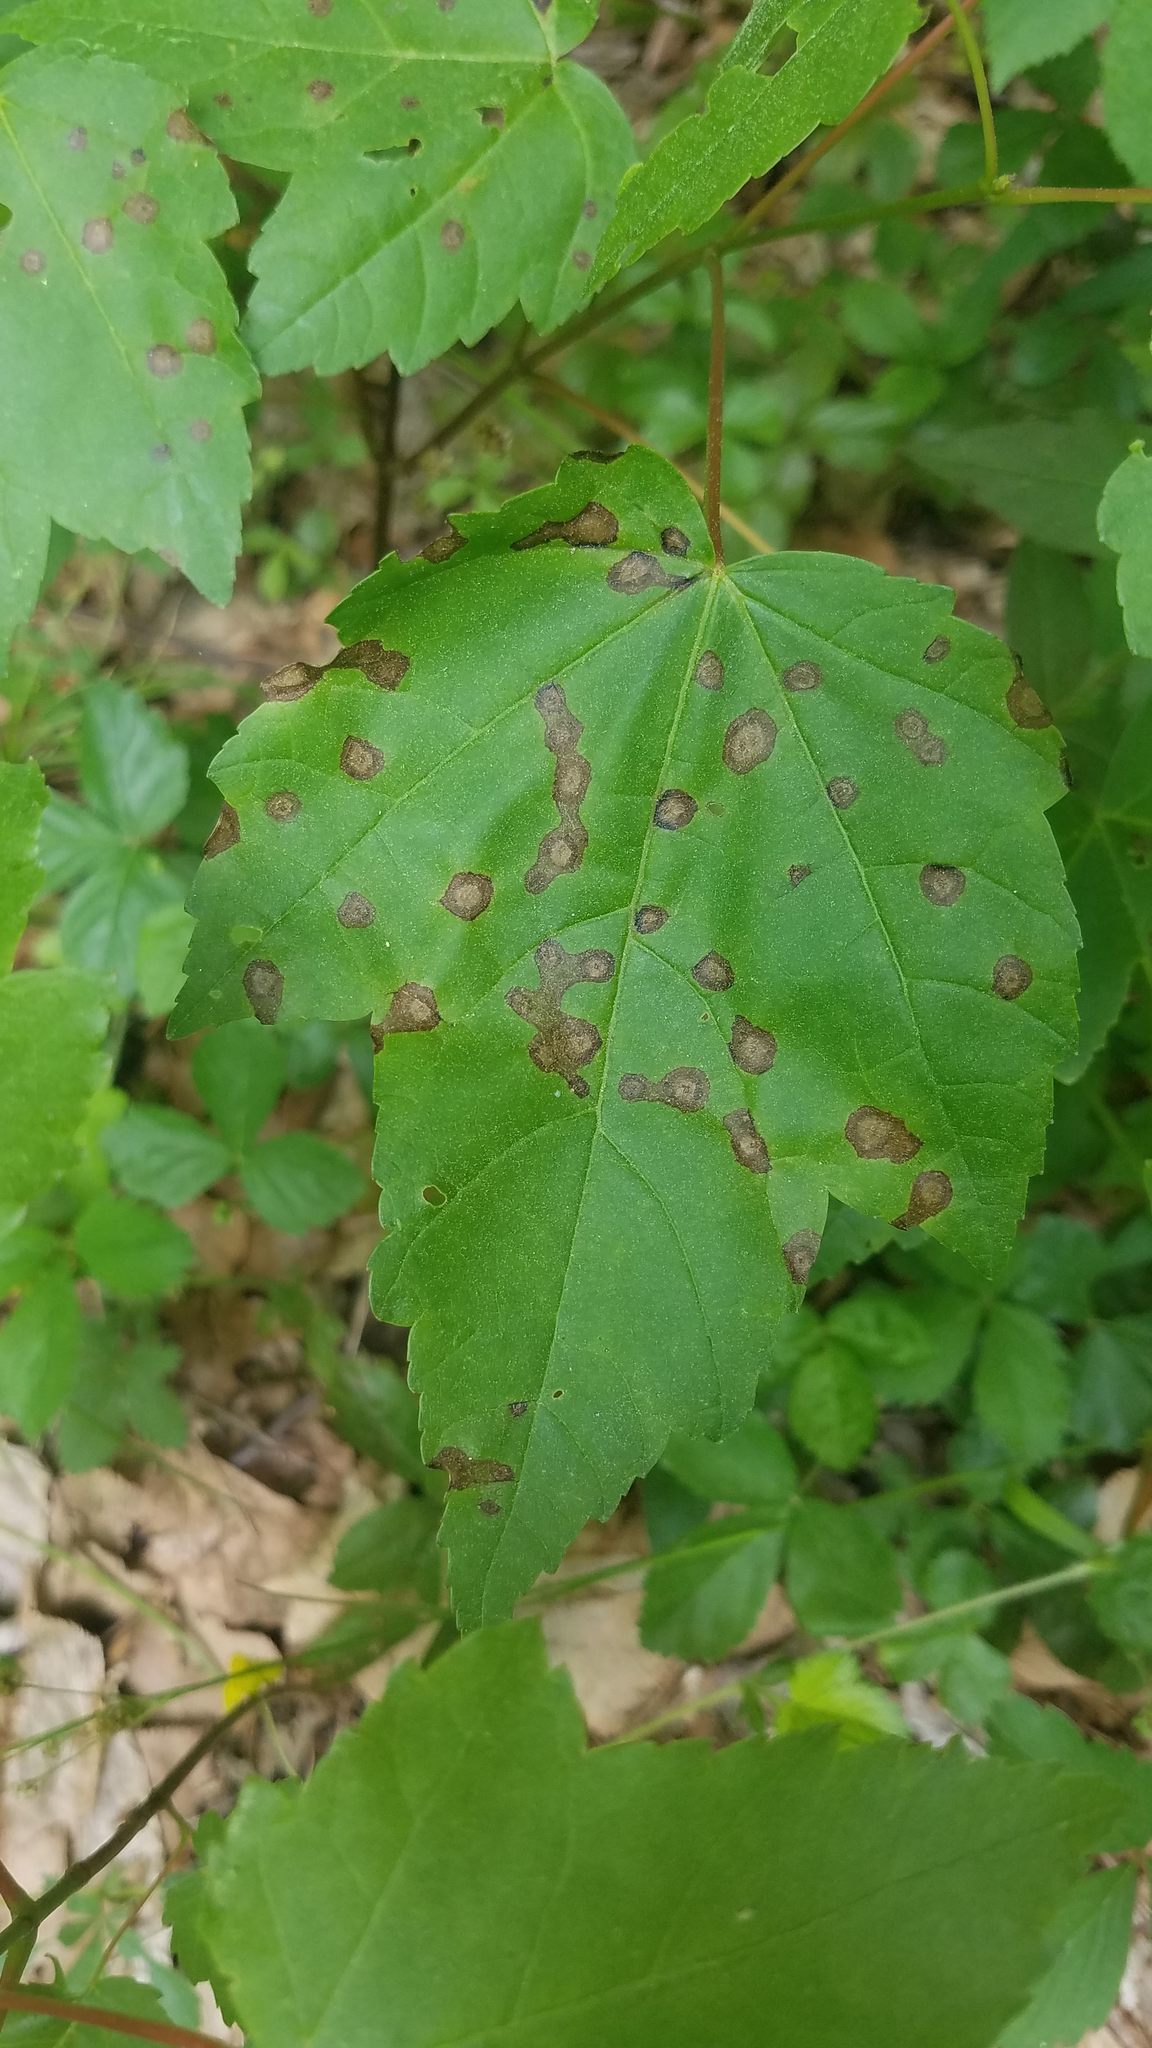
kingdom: Animalia
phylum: Arthropoda
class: Insecta
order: Diptera
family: Cecidomyiidae
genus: Acericecis
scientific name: Acericecis ocellaris
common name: Ocellate gall midge
